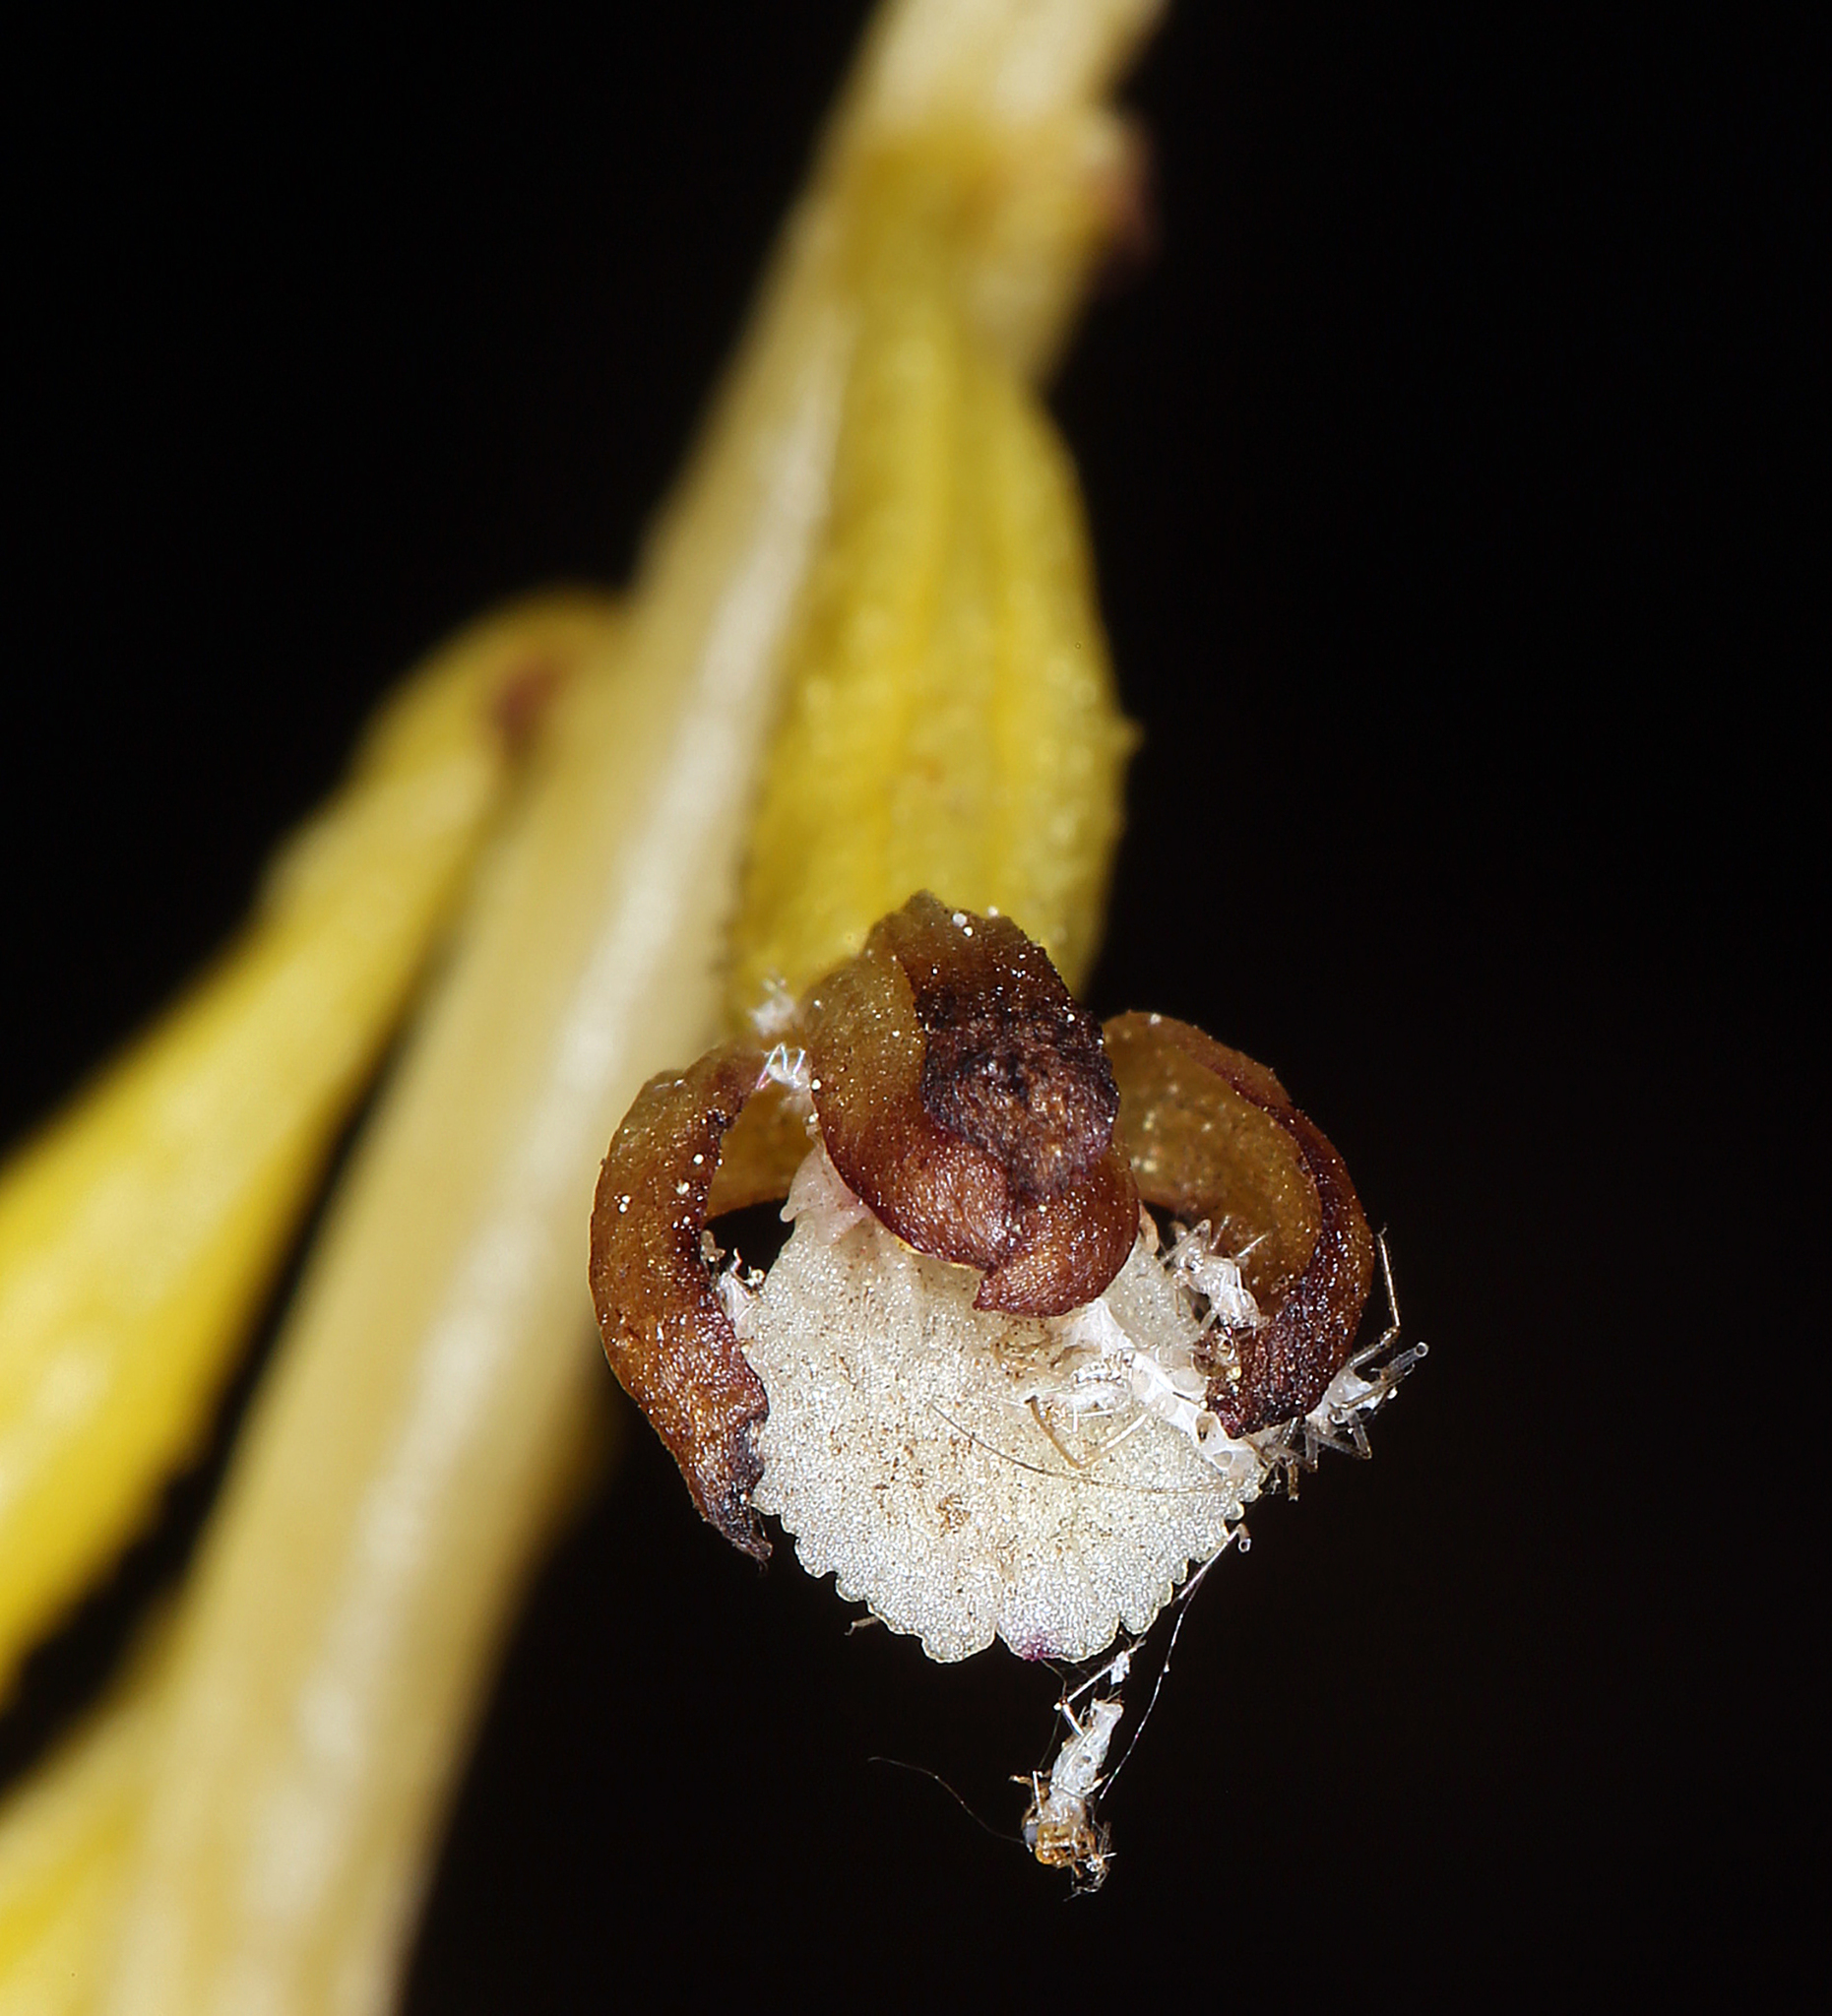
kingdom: Plantae
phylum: Tracheophyta
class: Liliopsida
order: Asparagales
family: Orchidaceae
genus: Corallorhiza
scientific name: Corallorhiza maculata
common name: Spotted coralroot
